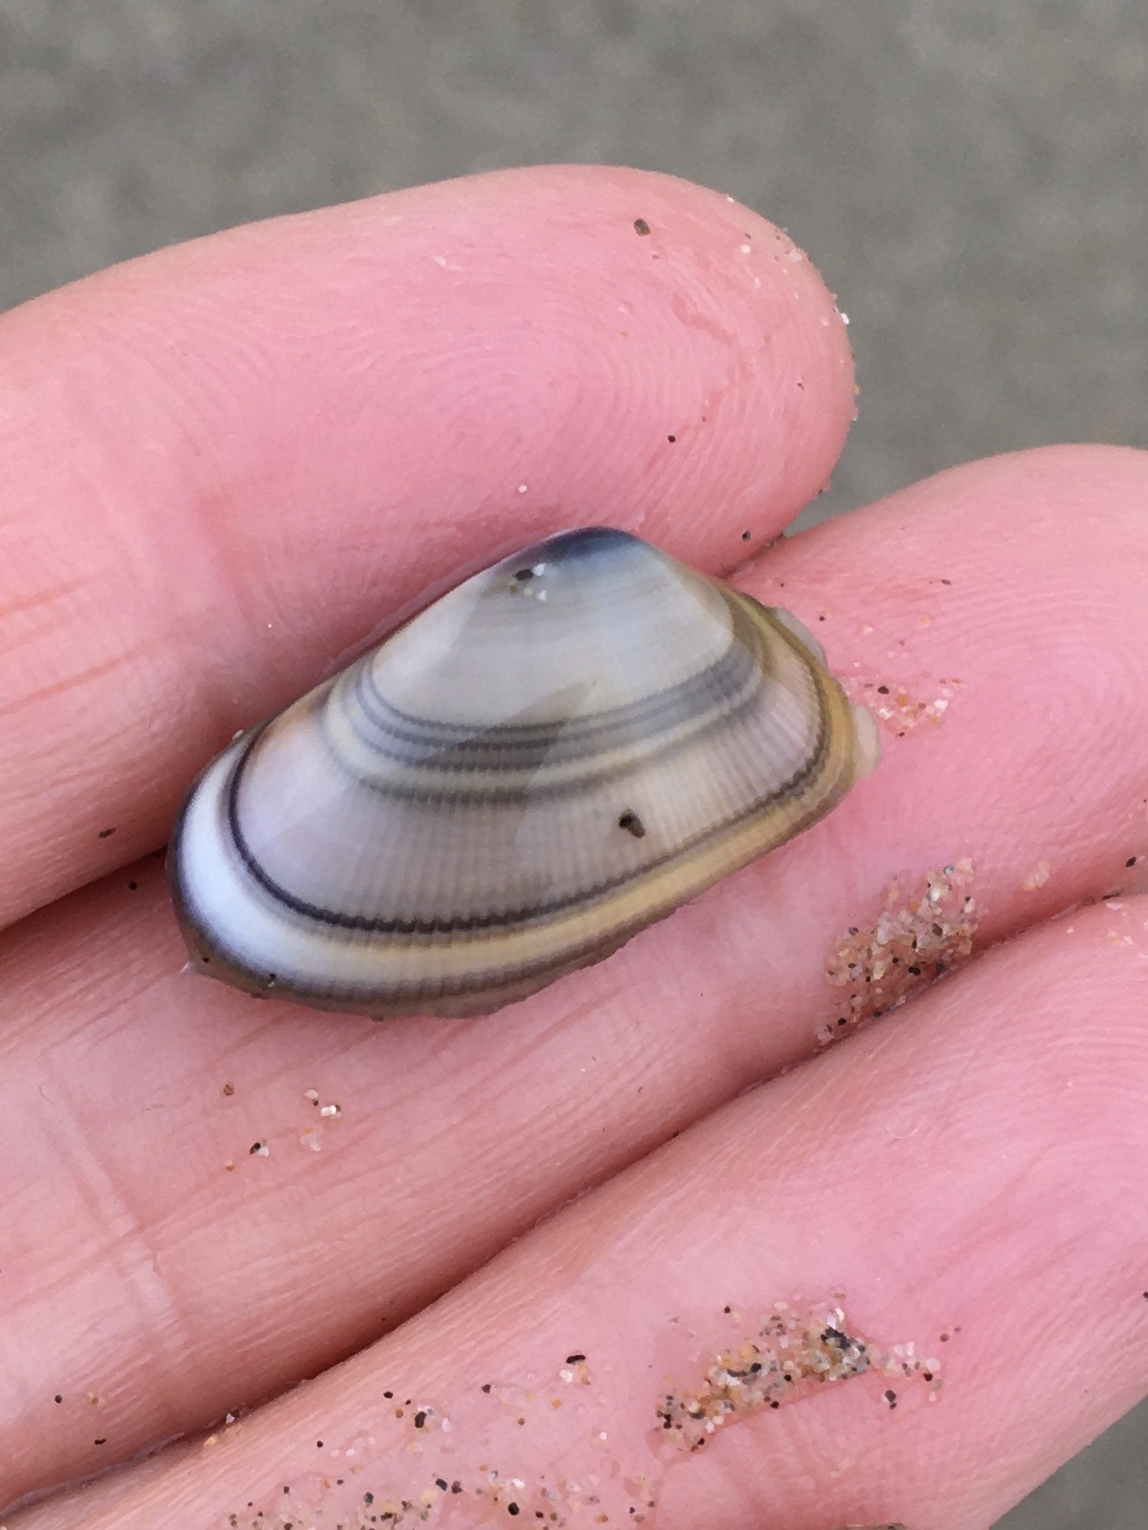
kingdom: Animalia
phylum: Mollusca
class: Bivalvia
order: Cardiida
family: Donacidae
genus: Donax
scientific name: Donax gouldii
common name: Gould beanclam
